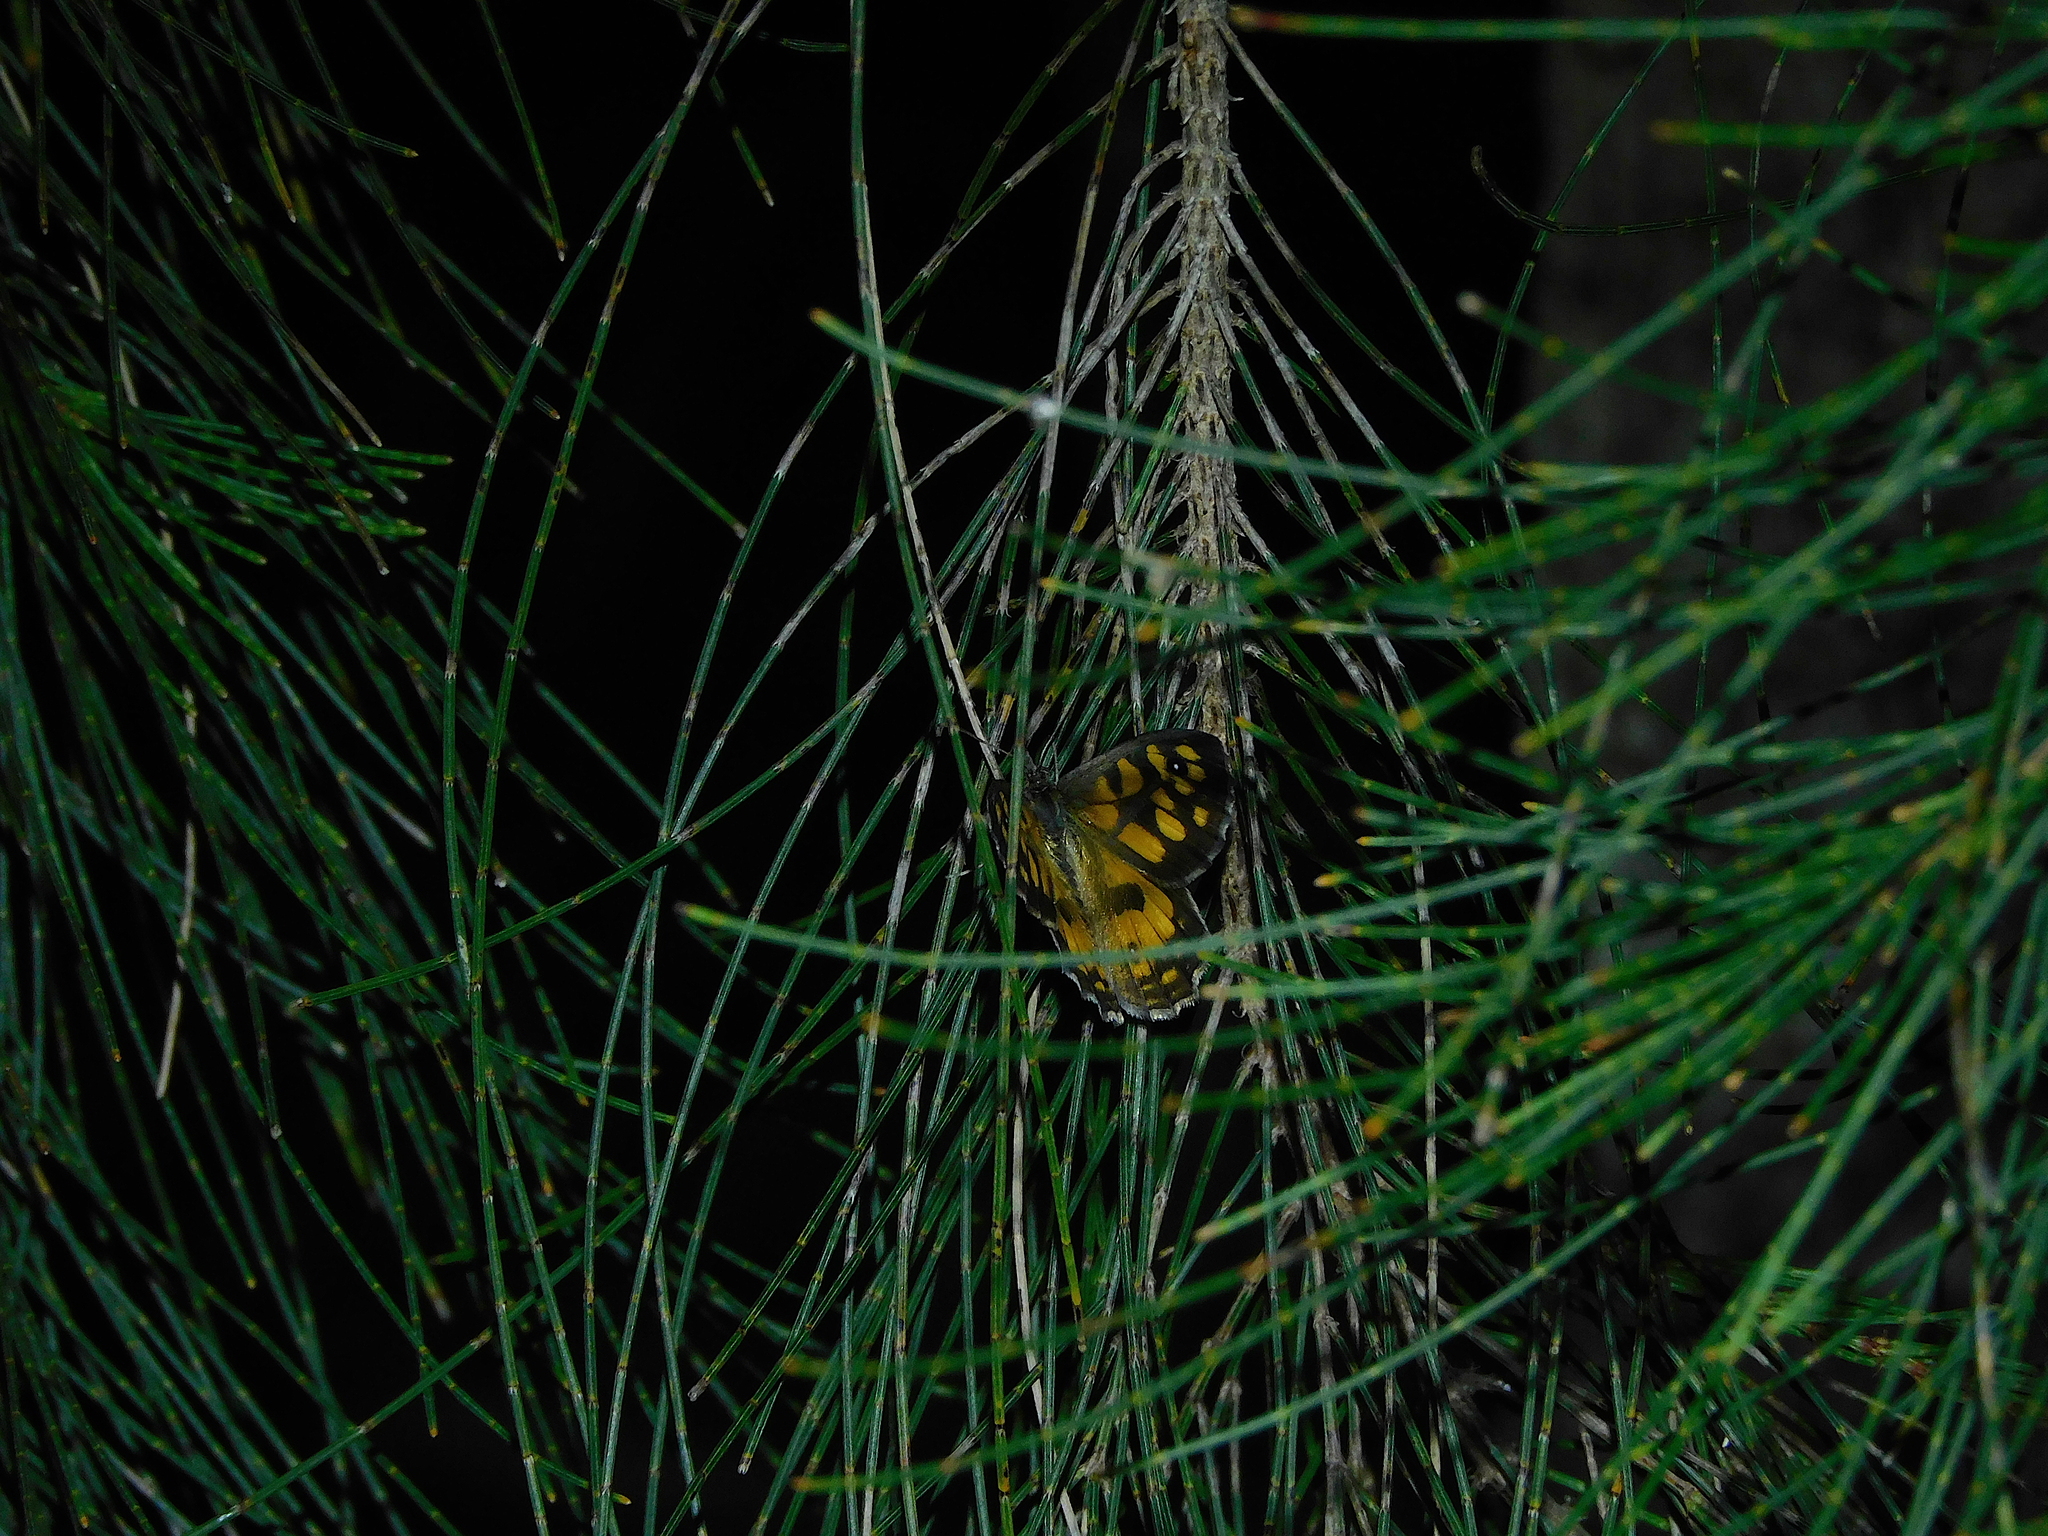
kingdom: Animalia
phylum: Arthropoda
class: Insecta
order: Lepidoptera
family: Nymphalidae
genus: Geitoneura
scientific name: Geitoneura klugii
